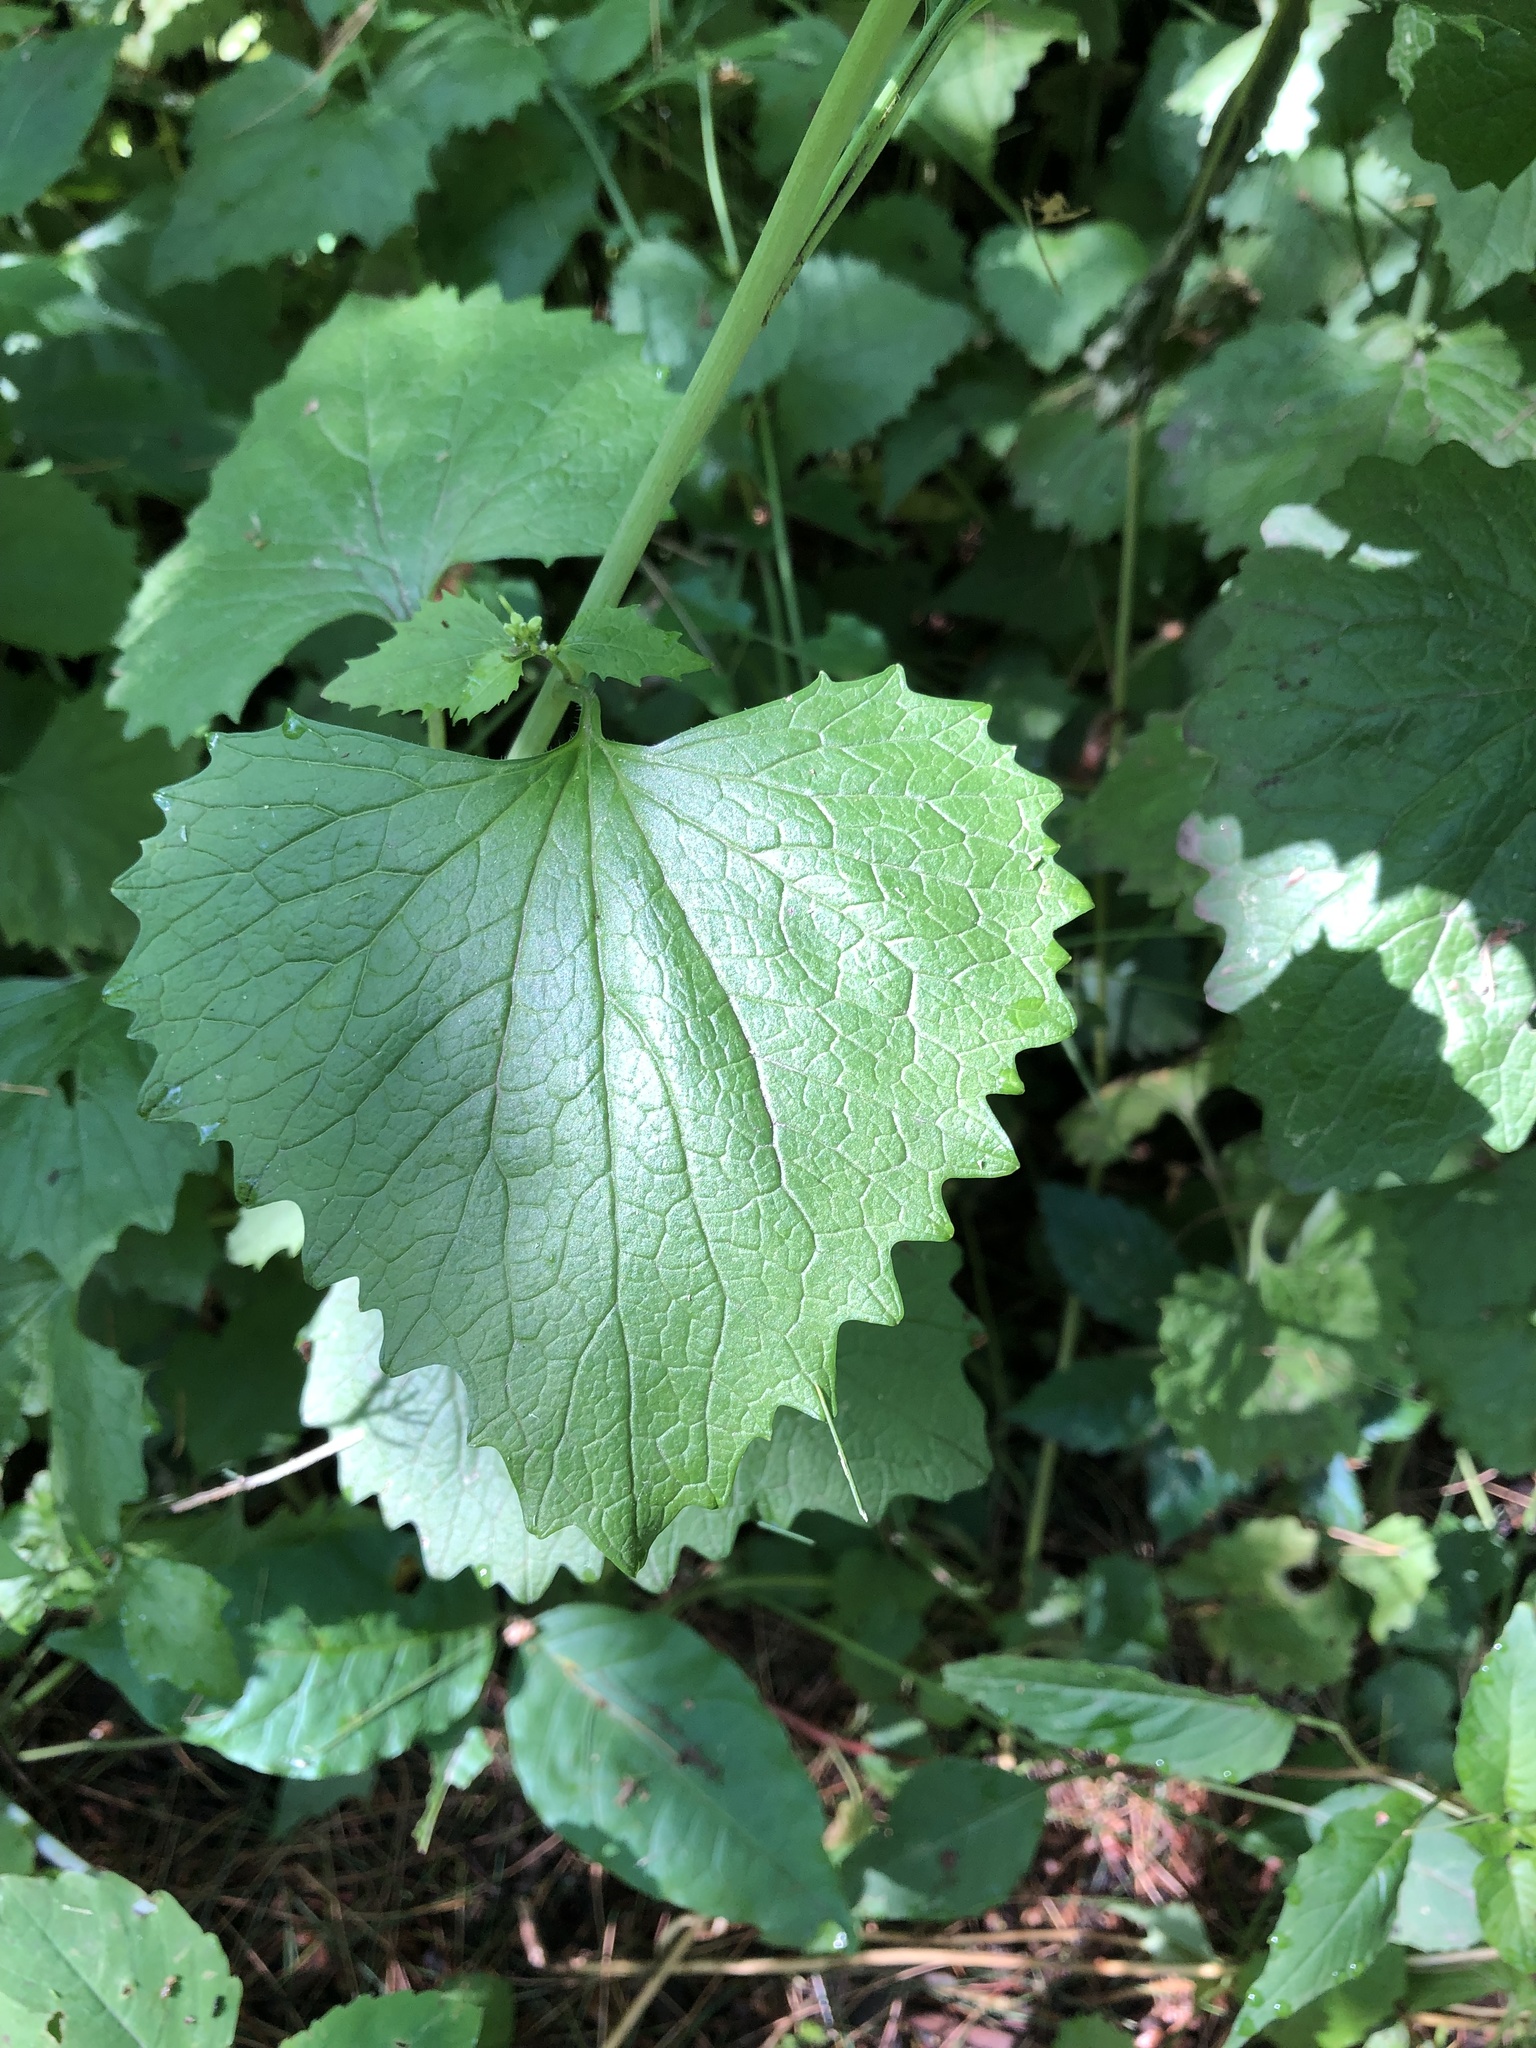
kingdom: Plantae
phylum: Tracheophyta
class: Magnoliopsida
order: Brassicales
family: Brassicaceae
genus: Alliaria
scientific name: Alliaria petiolata
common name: Garlic mustard
